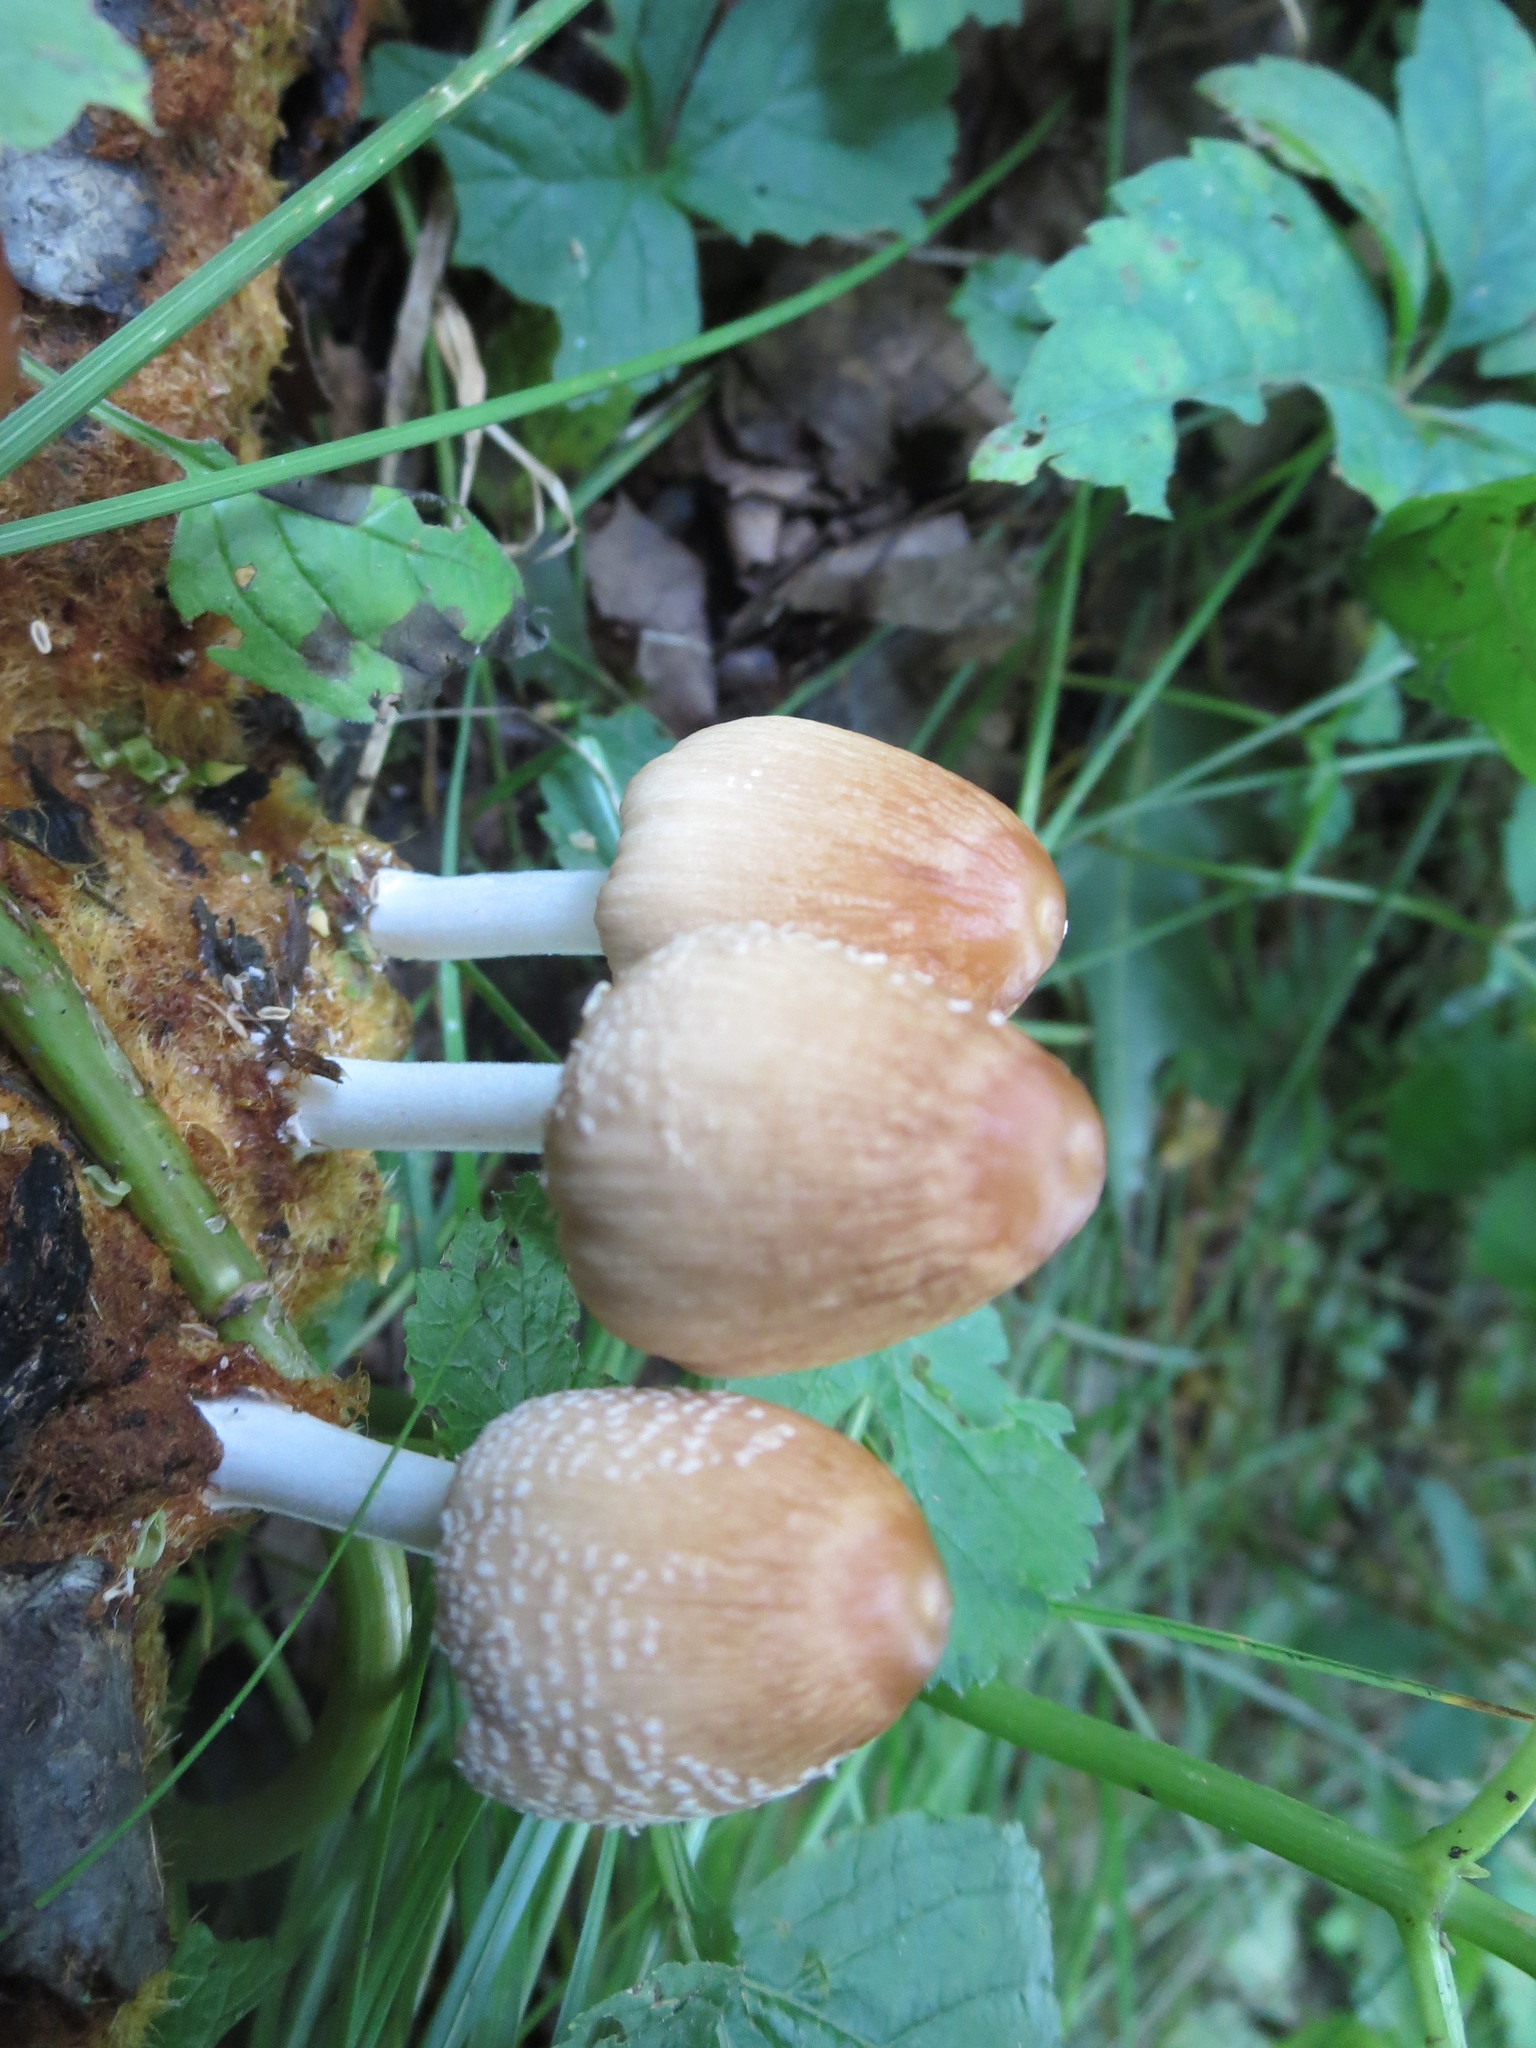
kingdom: Fungi
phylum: Basidiomycota
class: Agaricomycetes
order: Agaricales
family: Psathyrellaceae
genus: Coprinellus
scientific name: Coprinellus domesticus
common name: Firerug inkcap
